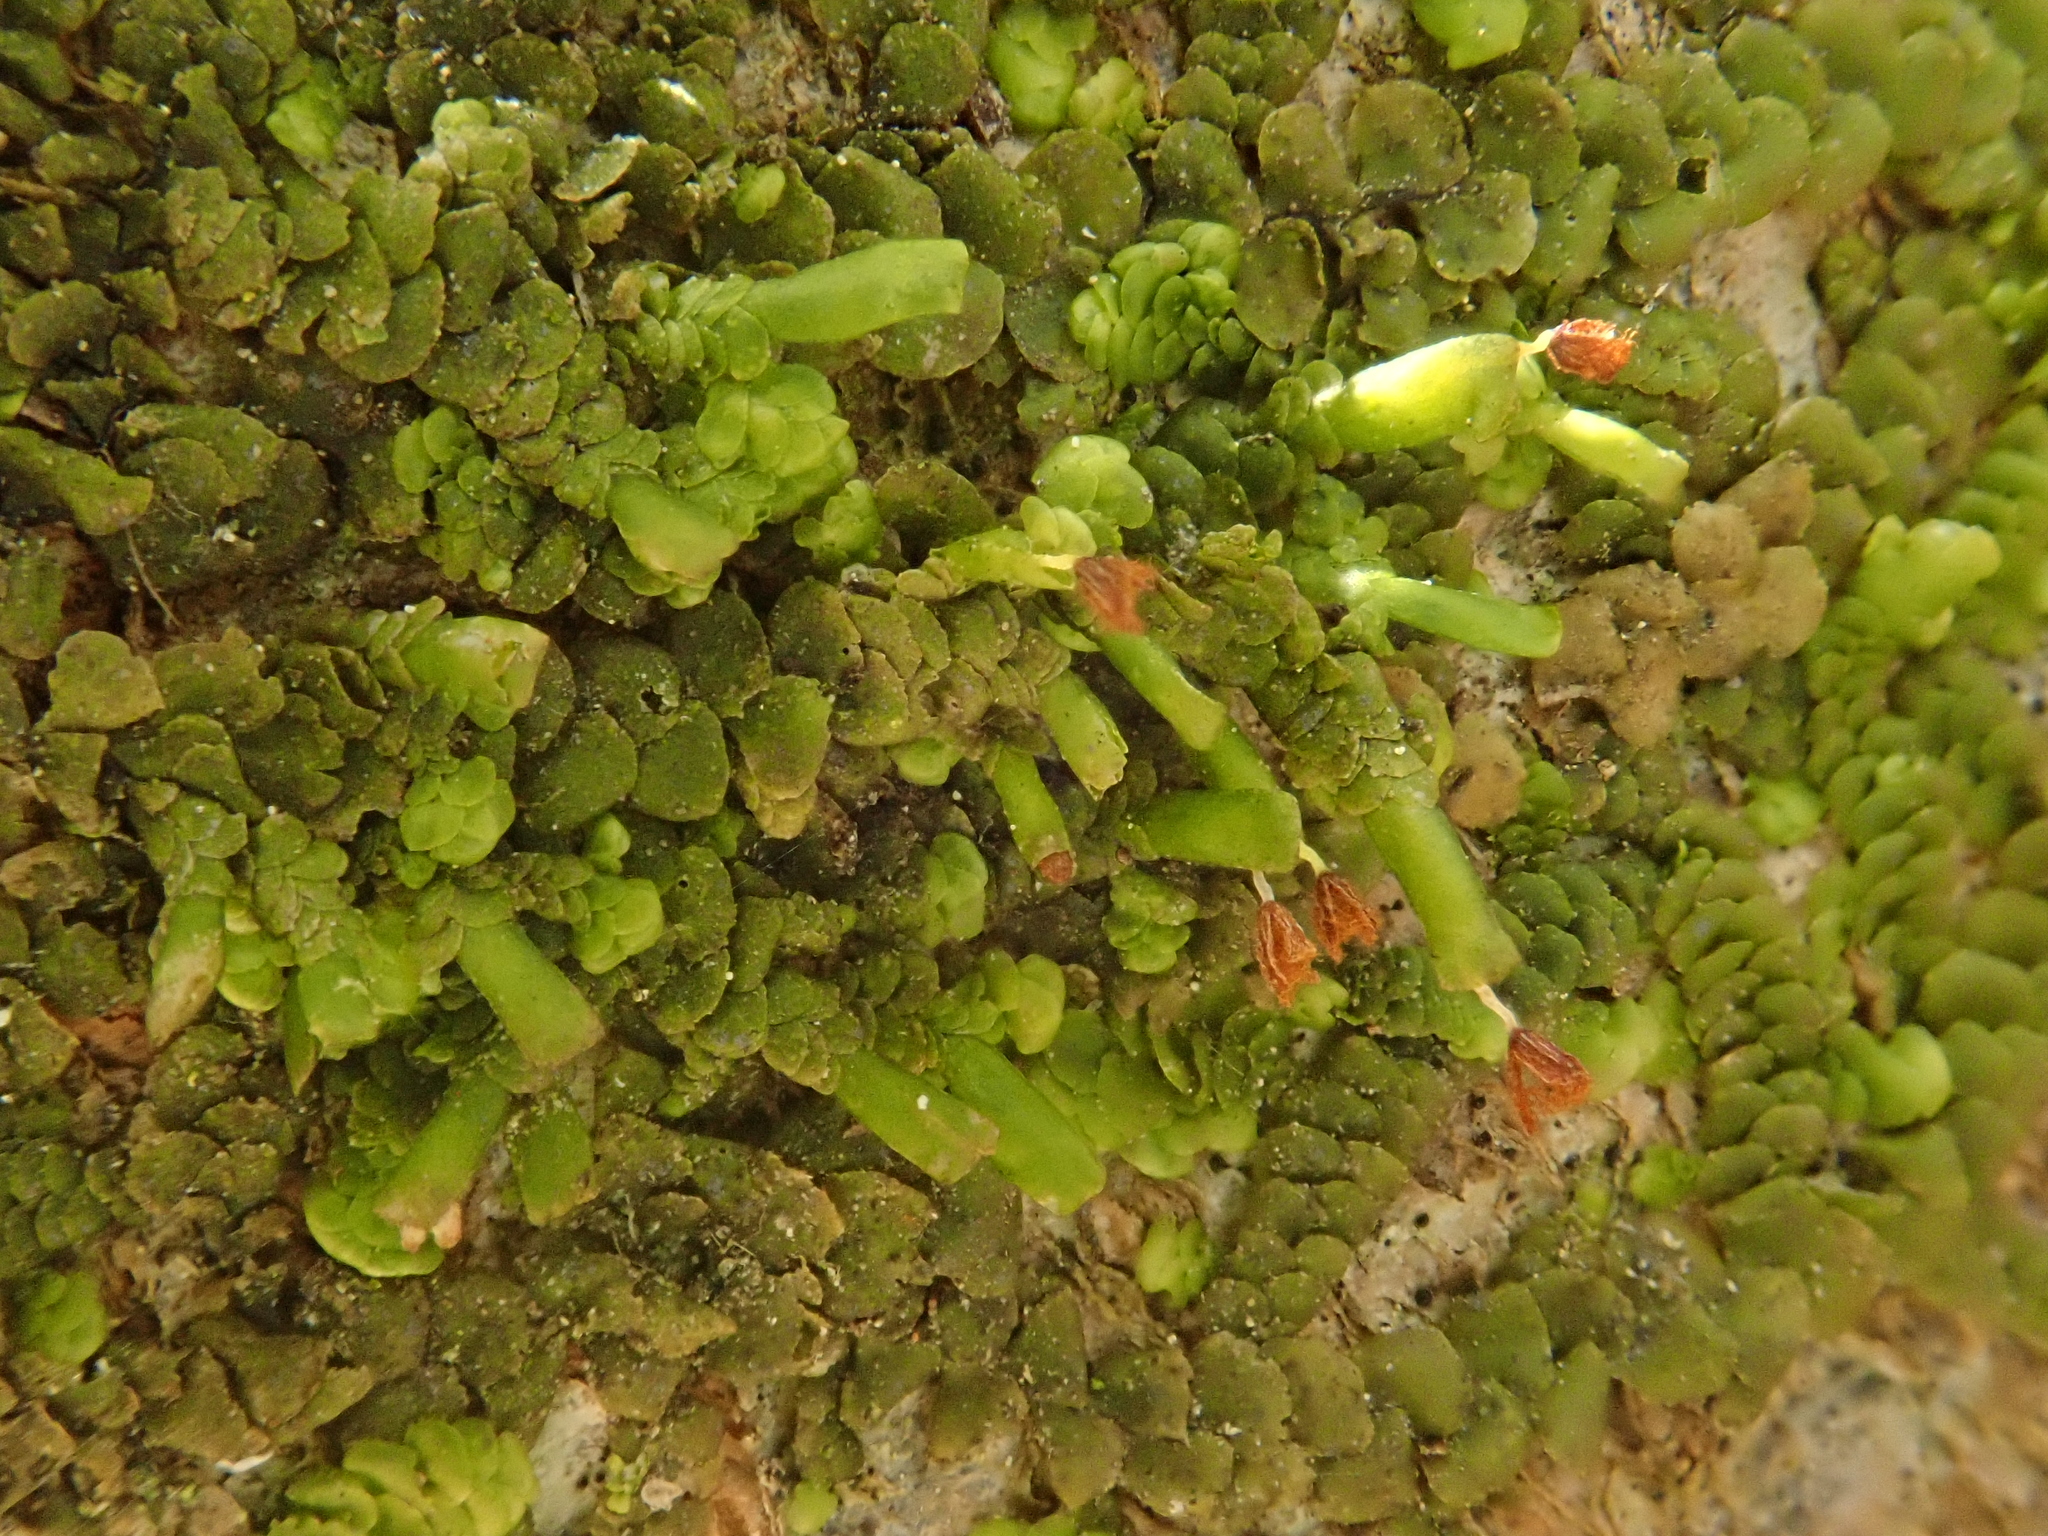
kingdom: Plantae
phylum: Marchantiophyta
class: Jungermanniopsida
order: Porellales
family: Radulaceae
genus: Radula
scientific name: Radula complanata
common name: Flat-leaved scalewort
